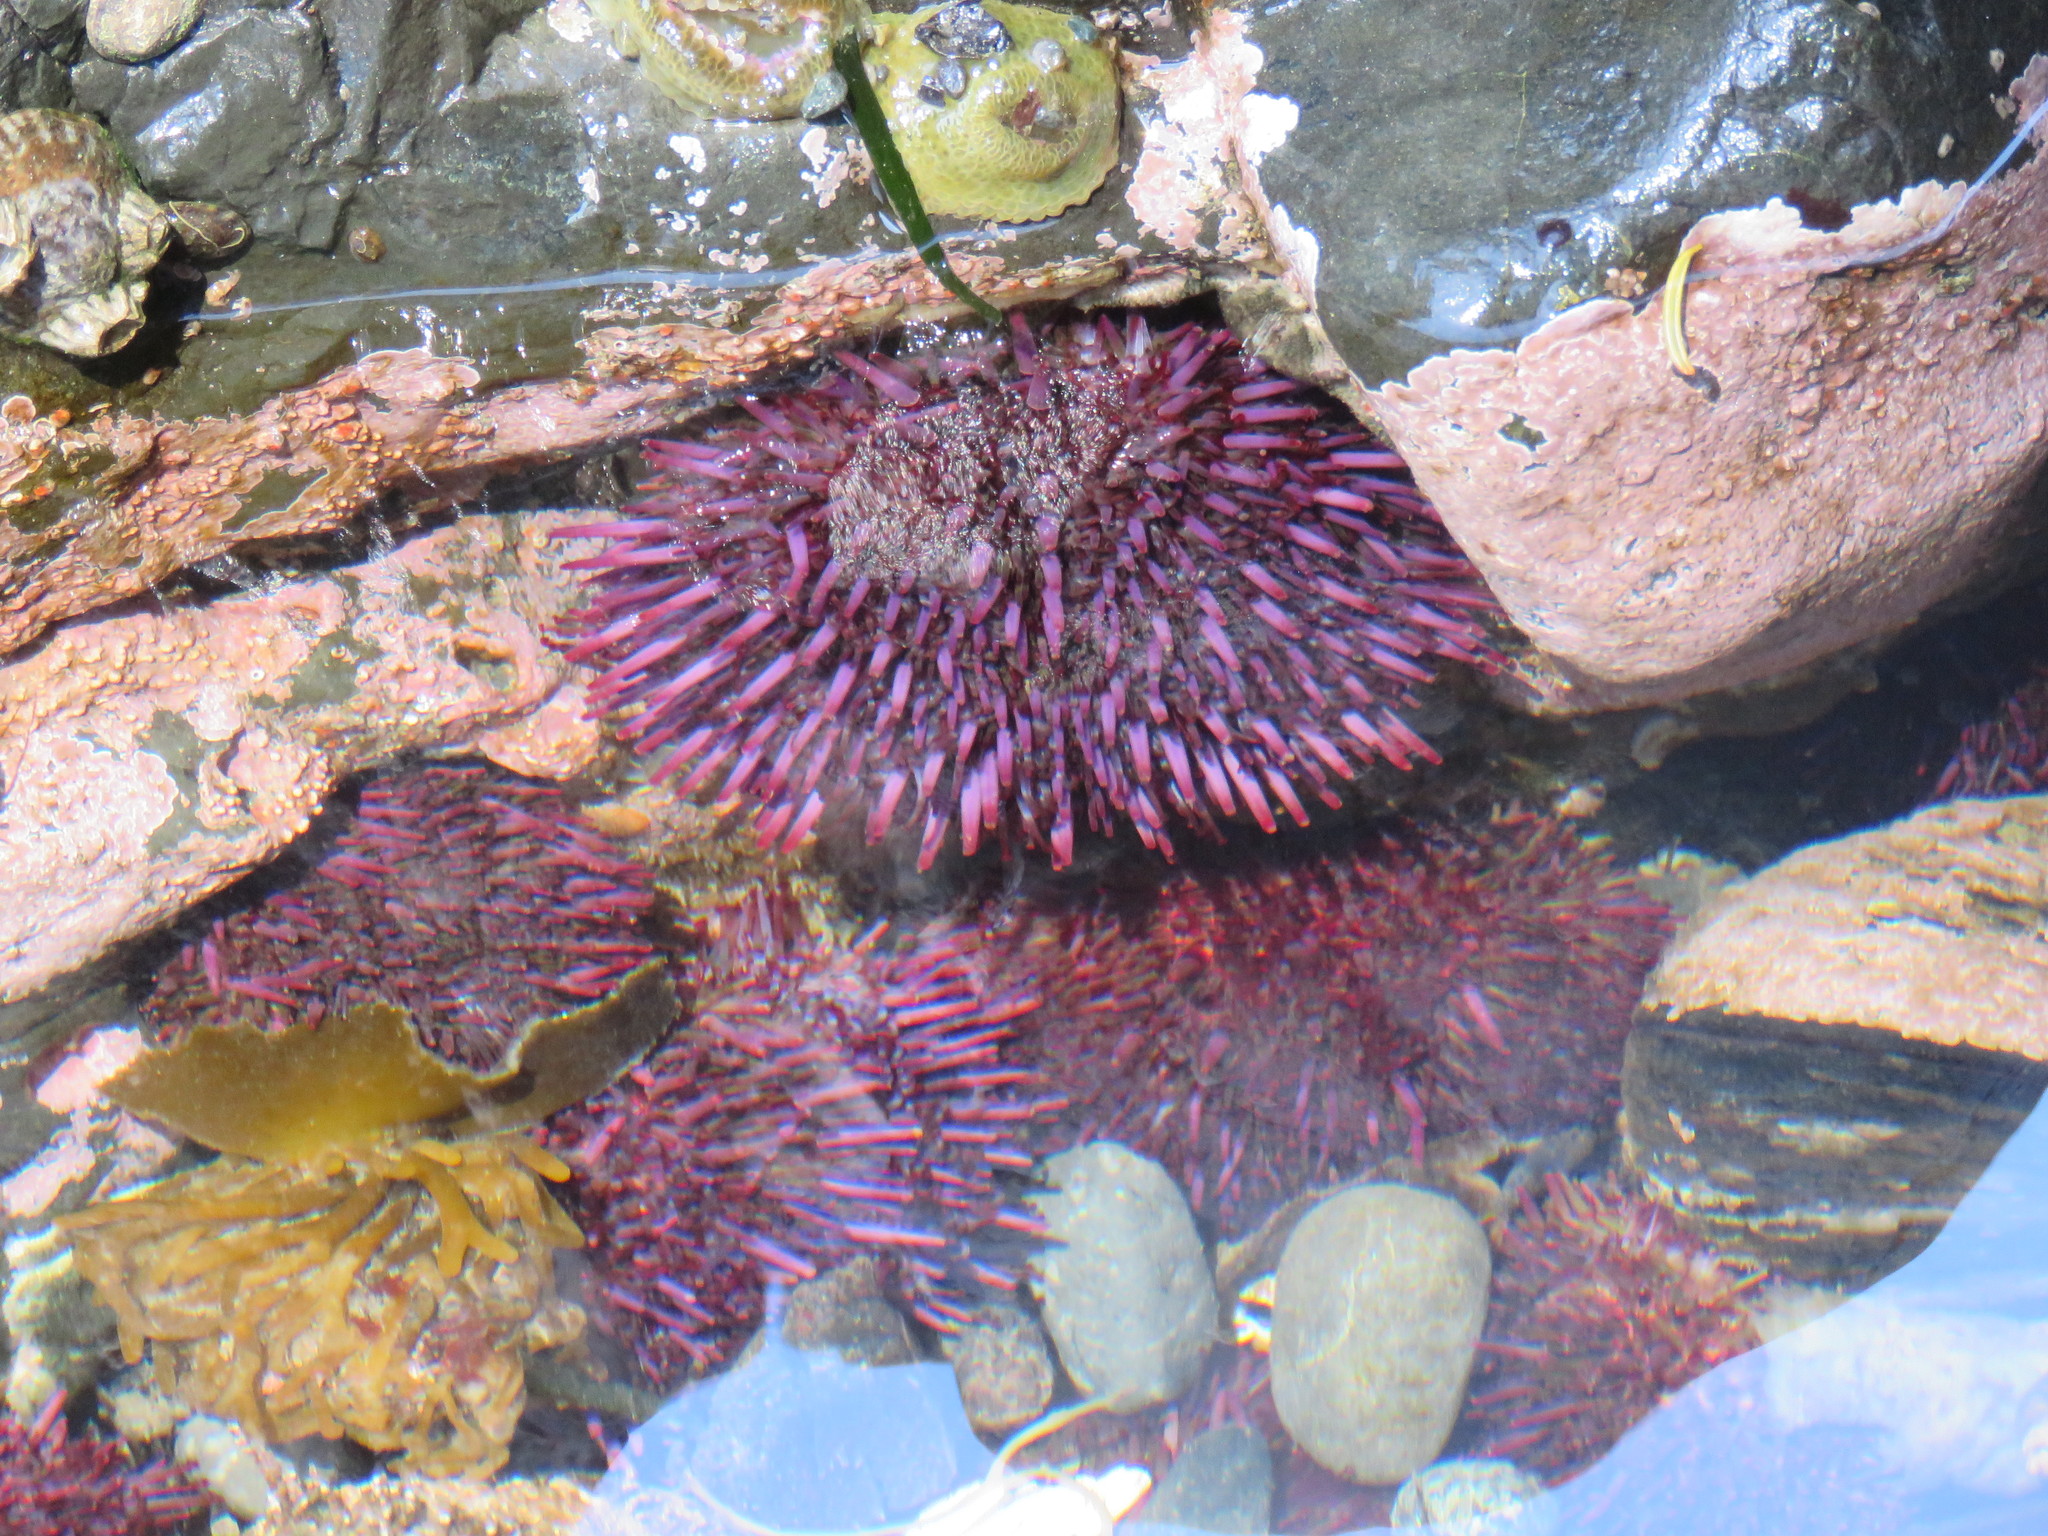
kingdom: Animalia
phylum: Echinodermata
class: Echinoidea
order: Camarodonta
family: Strongylocentrotidae
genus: Strongylocentrotus
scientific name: Strongylocentrotus purpuratus
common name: Purple sea urchin
